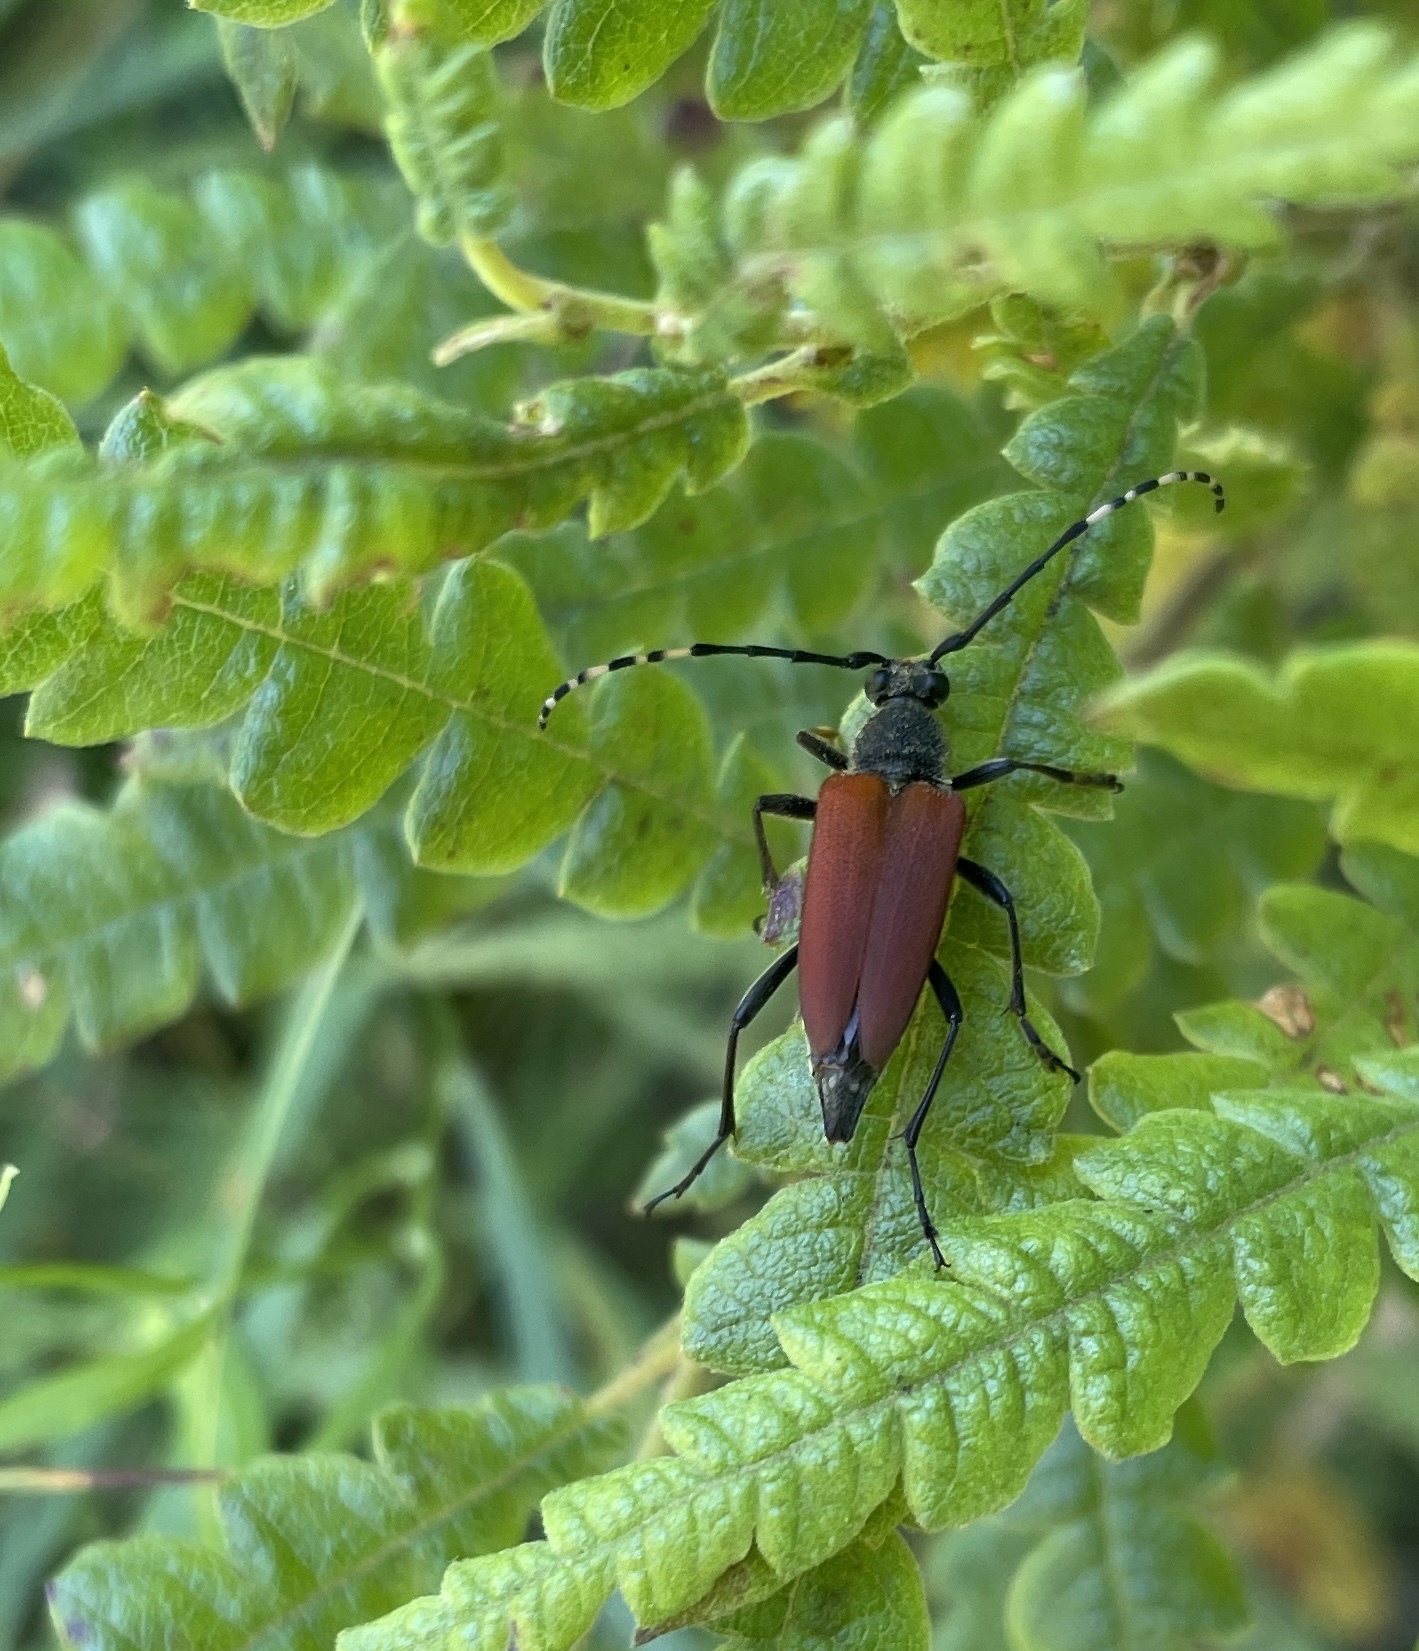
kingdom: Animalia
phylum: Arthropoda
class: Insecta
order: Coleoptera
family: Cerambycidae
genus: Brachyleptura
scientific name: Brachyleptura rubrica
